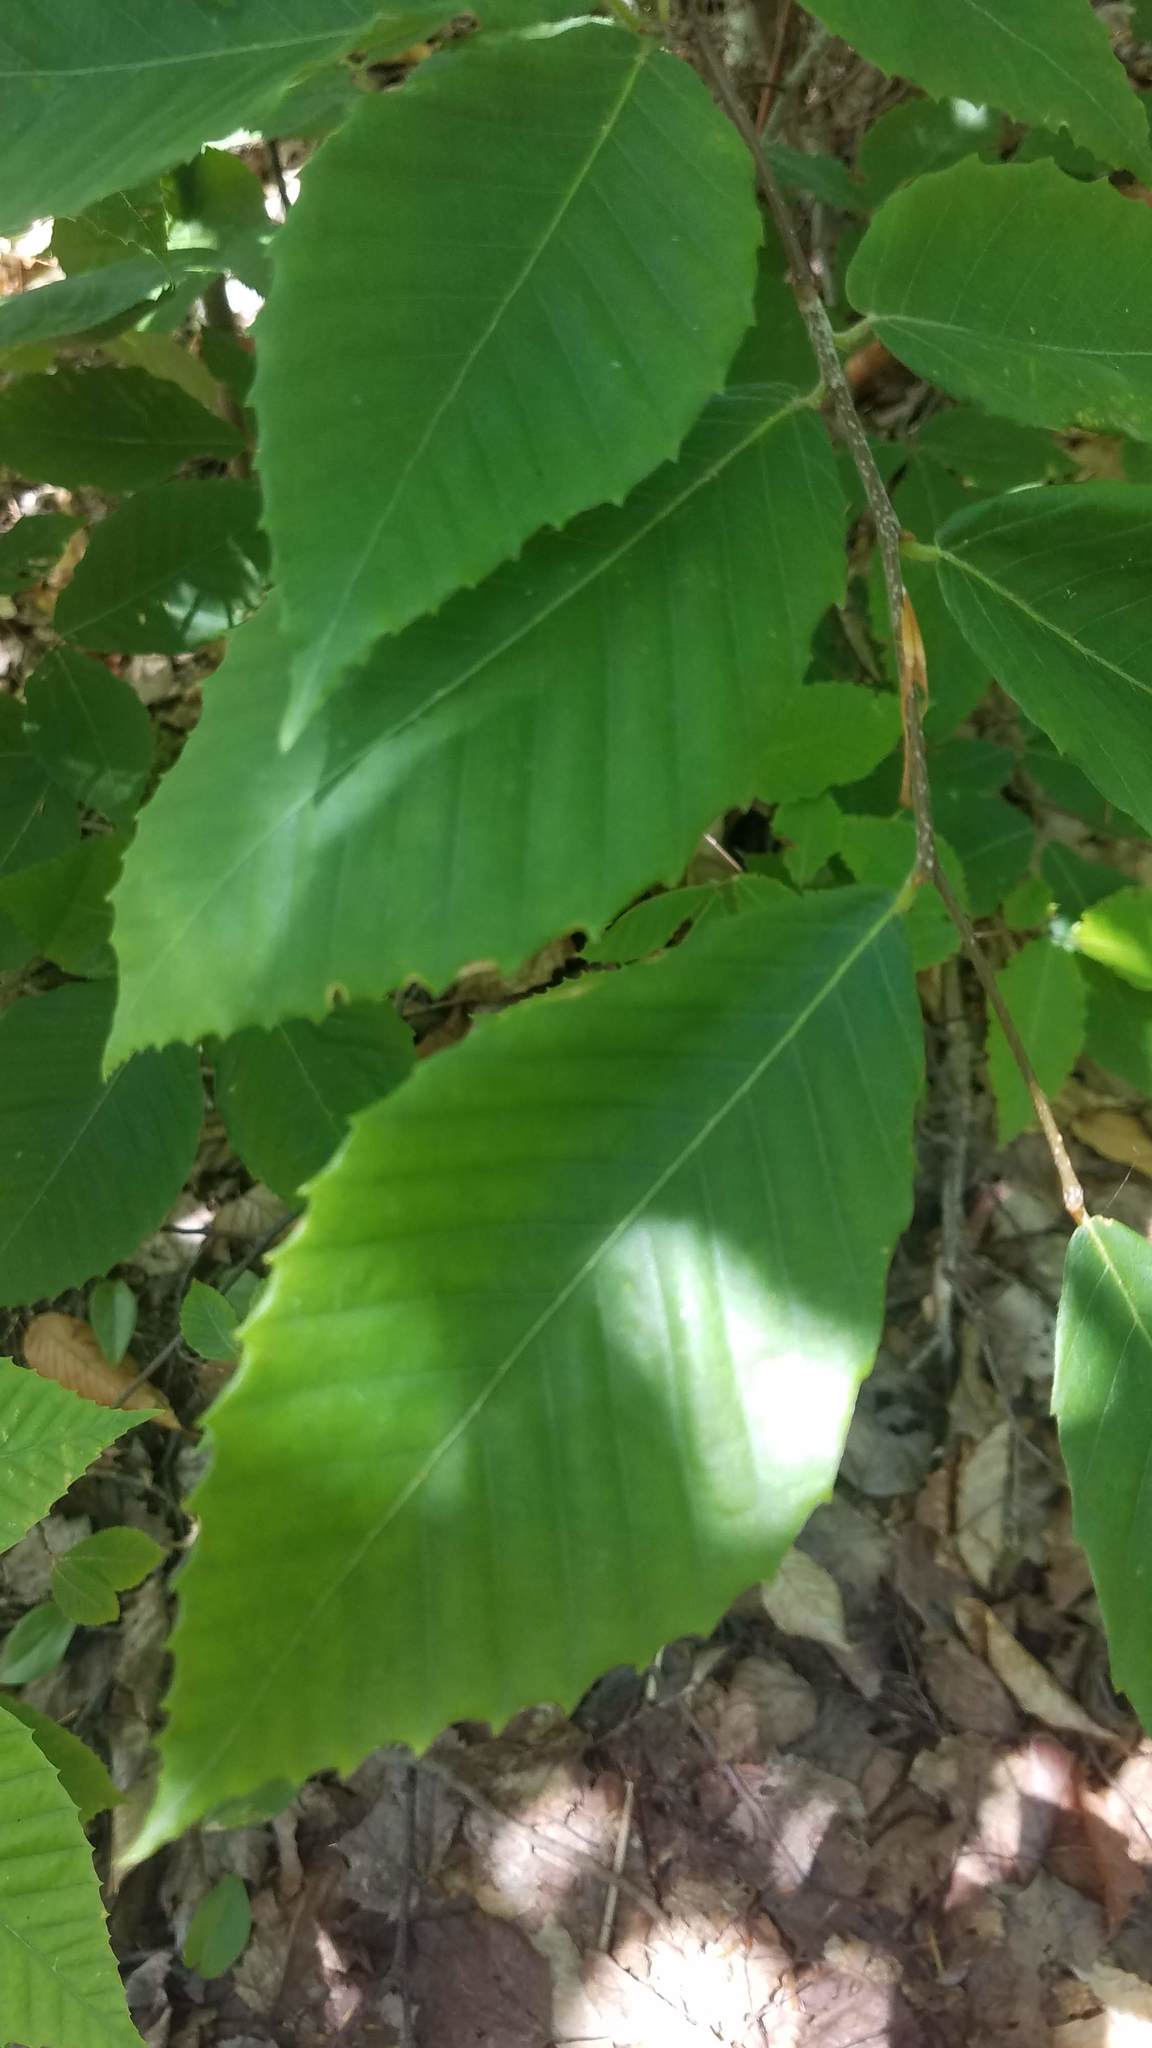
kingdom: Plantae
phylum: Tracheophyta
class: Magnoliopsida
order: Fagales
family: Fagaceae
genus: Fagus
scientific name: Fagus grandifolia
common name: American beech
